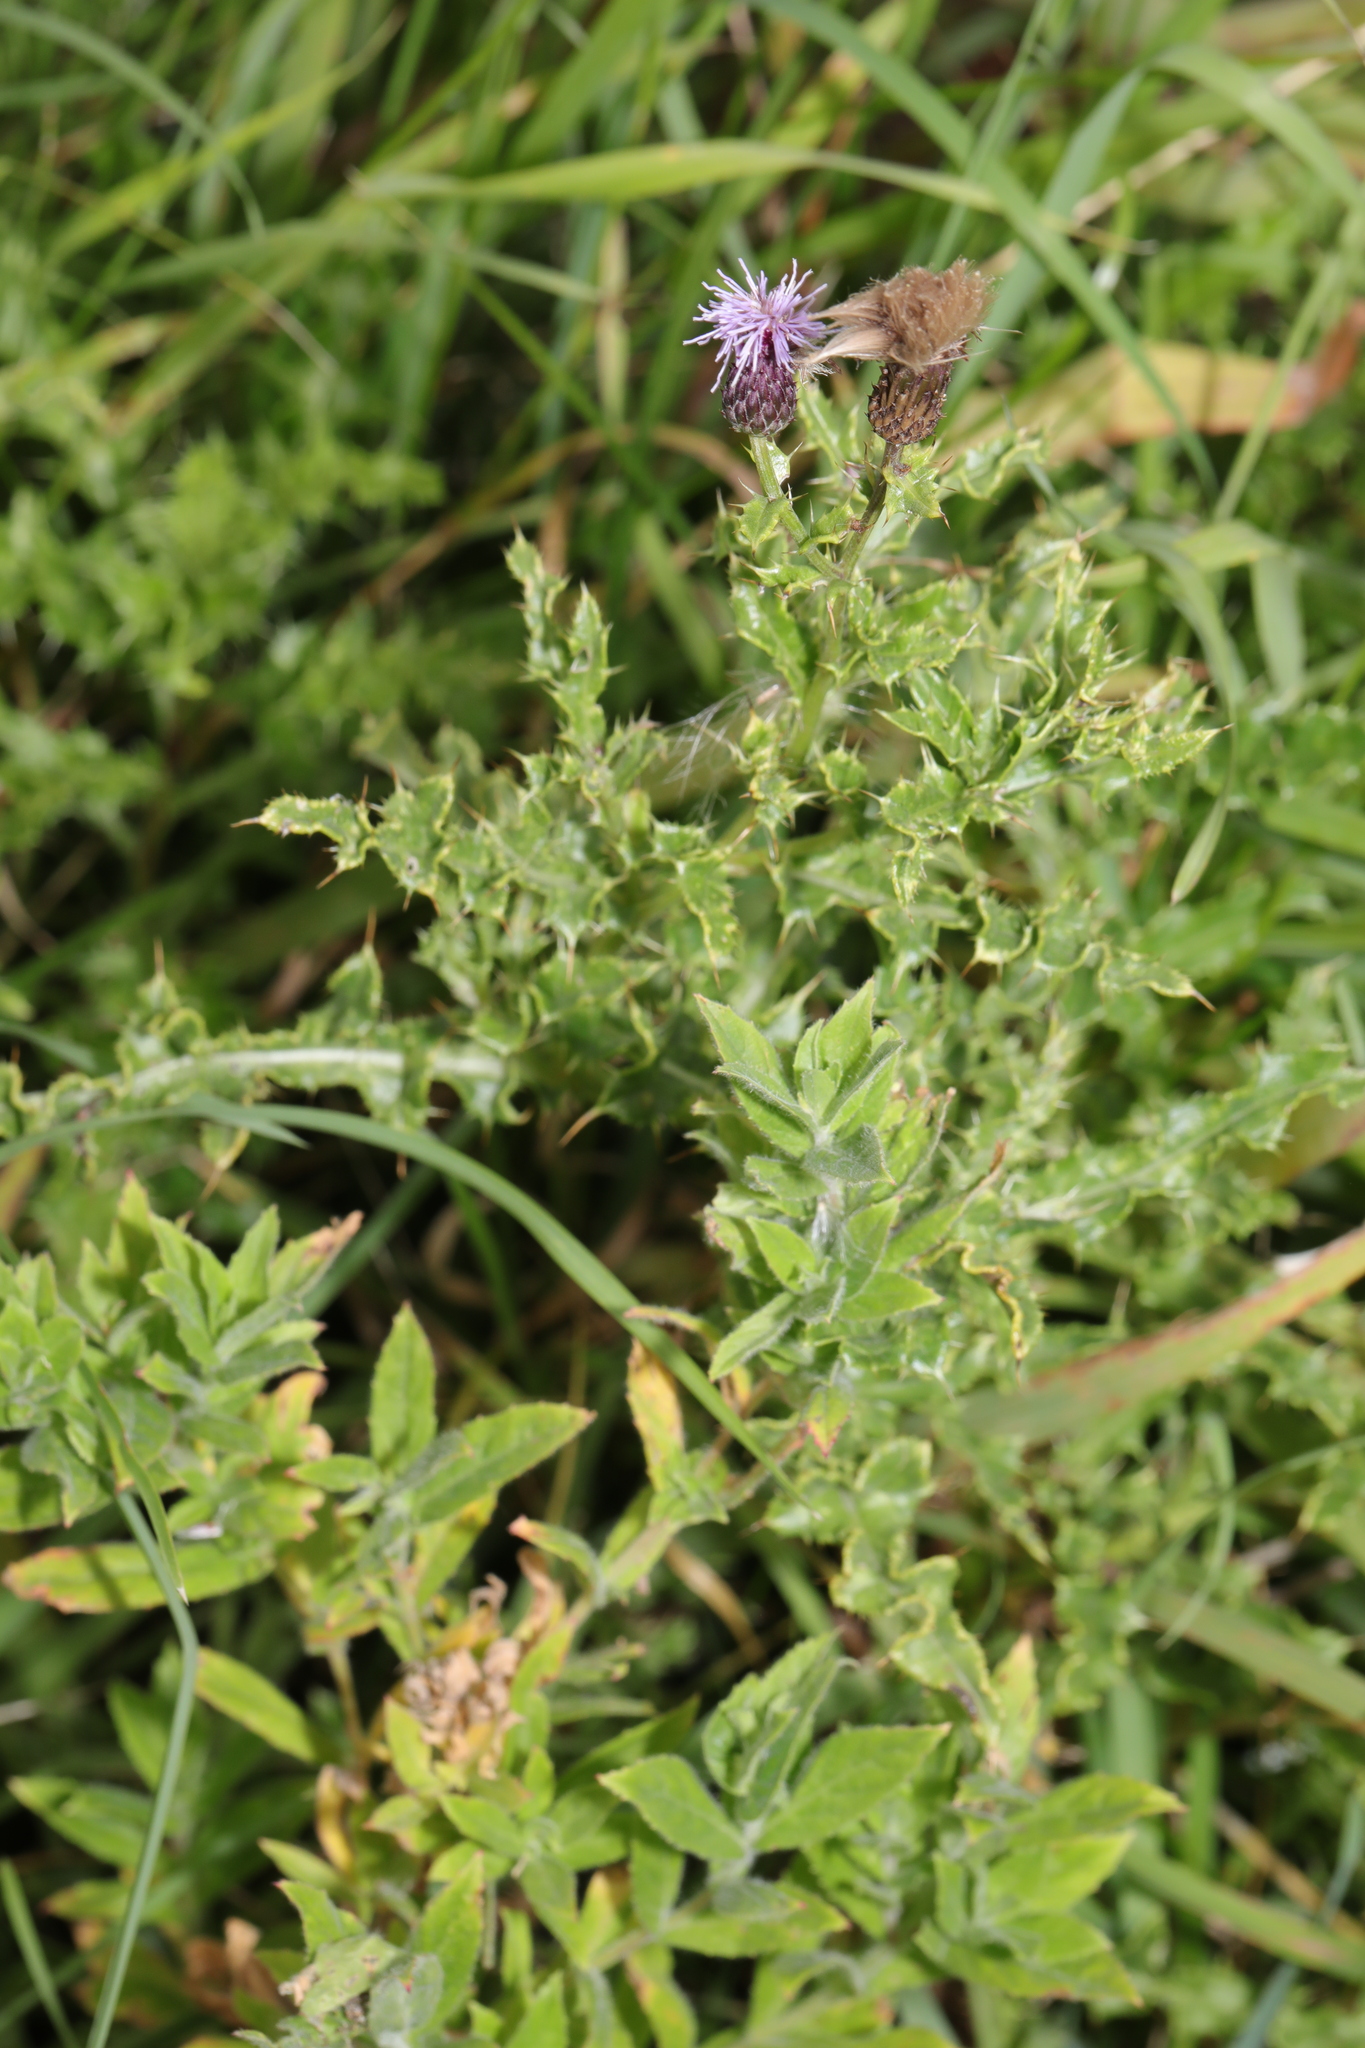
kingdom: Plantae
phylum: Tracheophyta
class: Magnoliopsida
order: Asterales
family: Asteraceae
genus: Cirsium
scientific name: Cirsium arvense
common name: Creeping thistle
